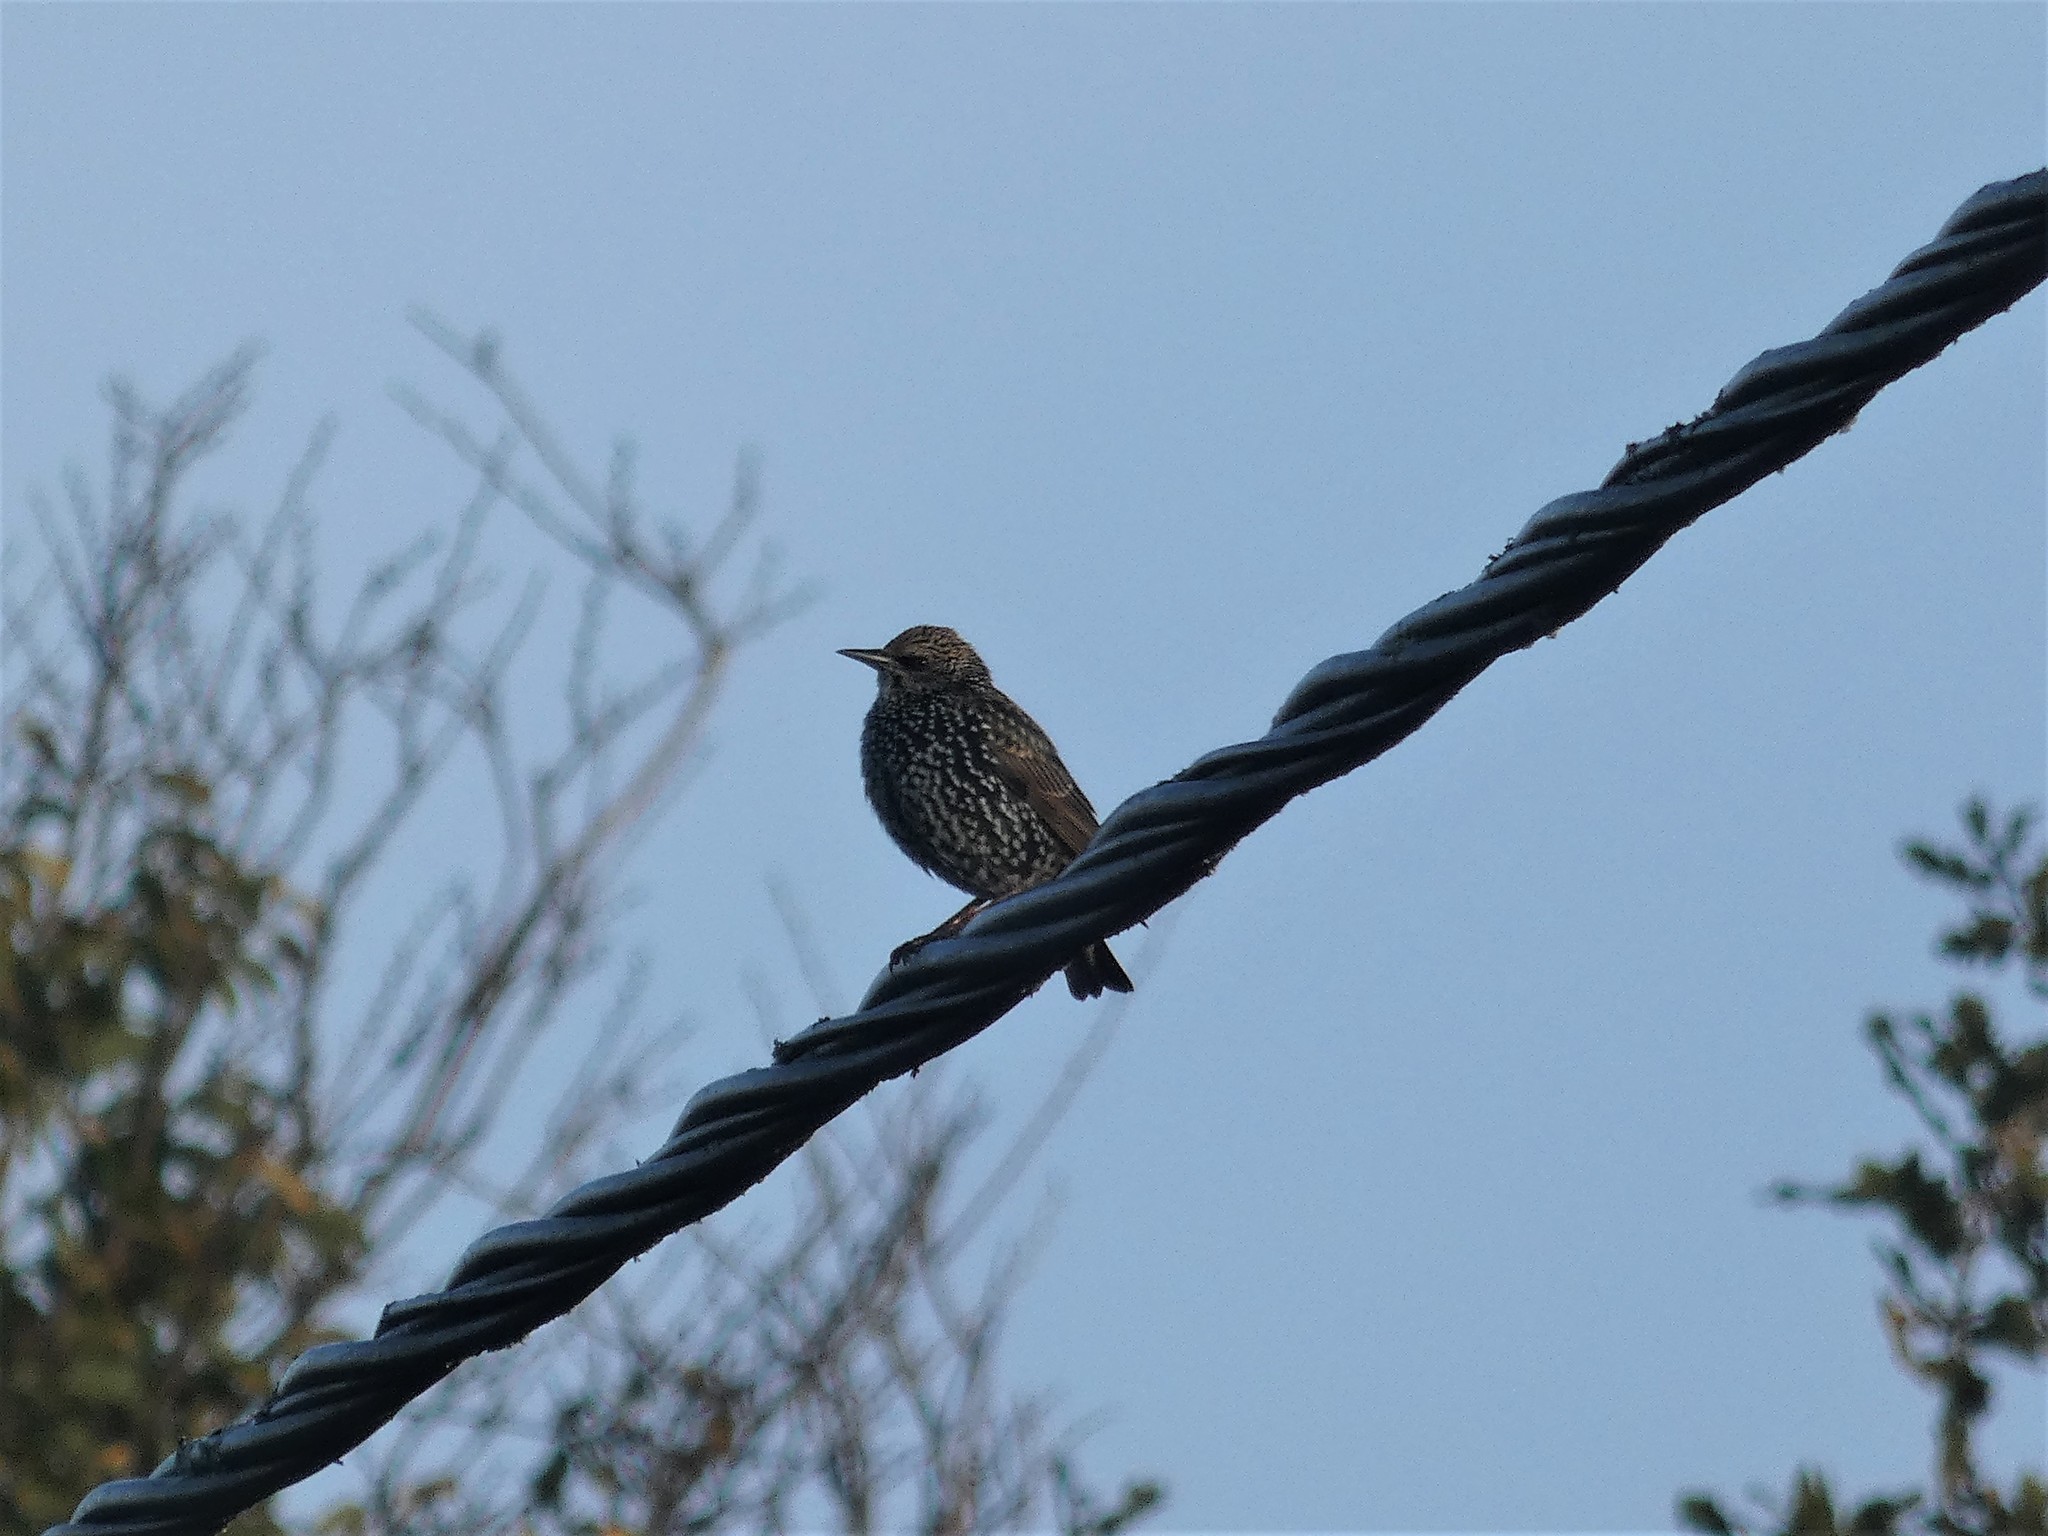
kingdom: Animalia
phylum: Chordata
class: Aves
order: Passeriformes
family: Sturnidae
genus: Sturnus
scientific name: Sturnus vulgaris
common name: Common starling
